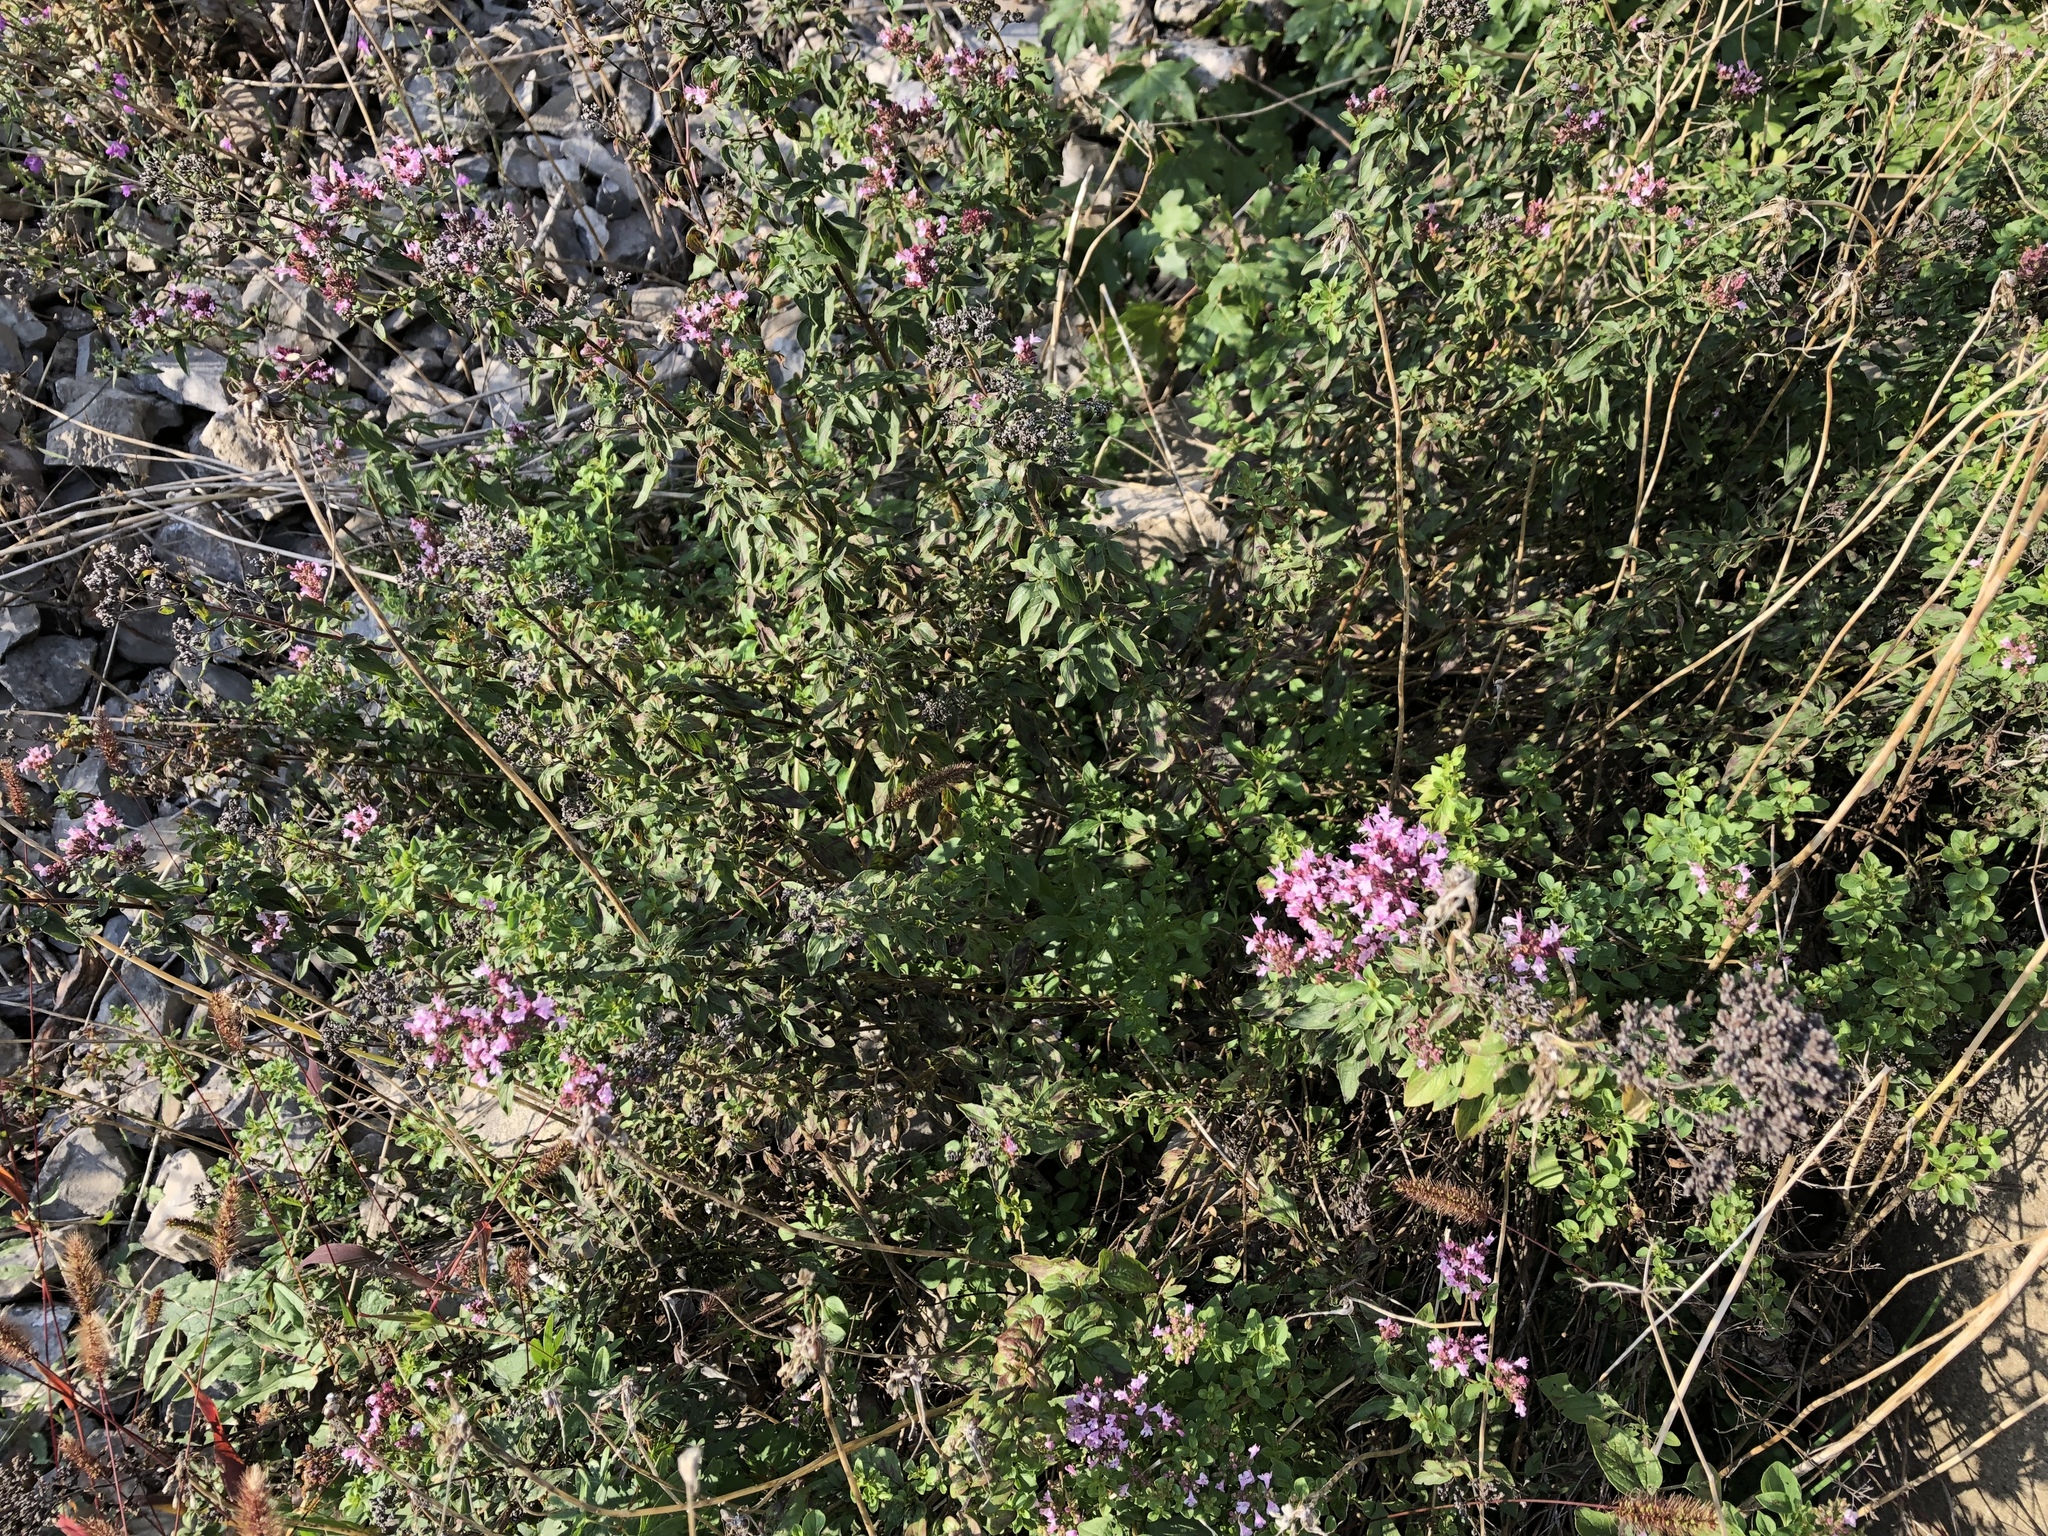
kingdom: Plantae
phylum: Tracheophyta
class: Magnoliopsida
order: Lamiales
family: Lamiaceae
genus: Origanum
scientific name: Origanum vulgare
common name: Wild marjoram
